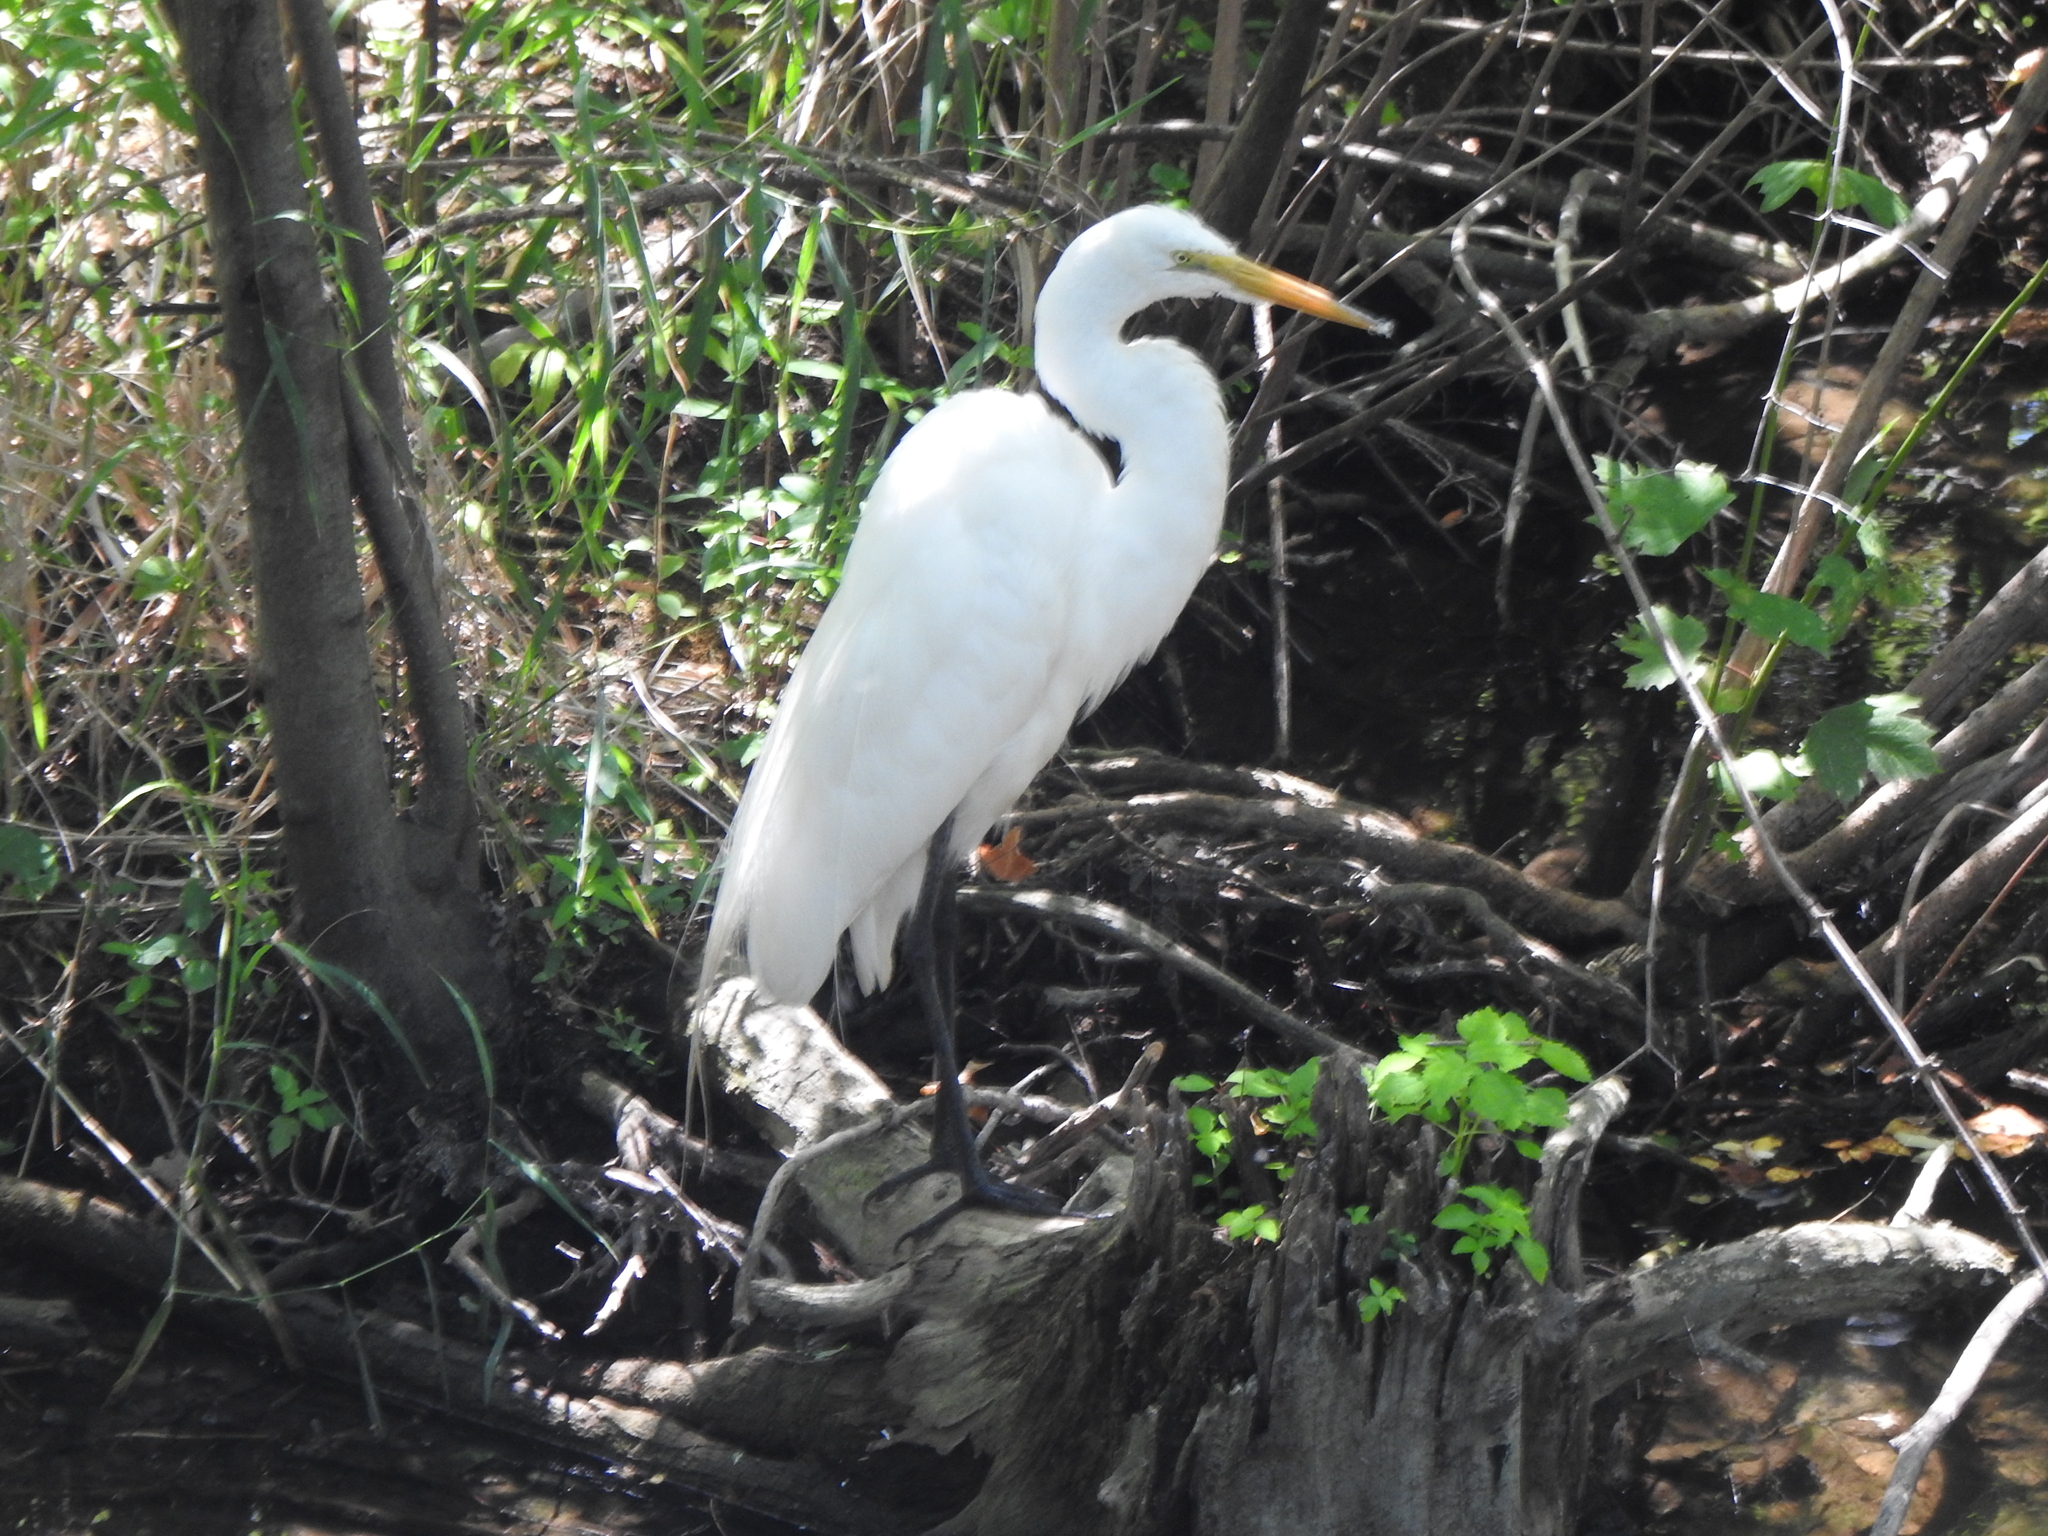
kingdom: Animalia
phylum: Chordata
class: Aves
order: Pelecaniformes
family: Ardeidae
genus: Ardea
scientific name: Ardea alba
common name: Great egret
